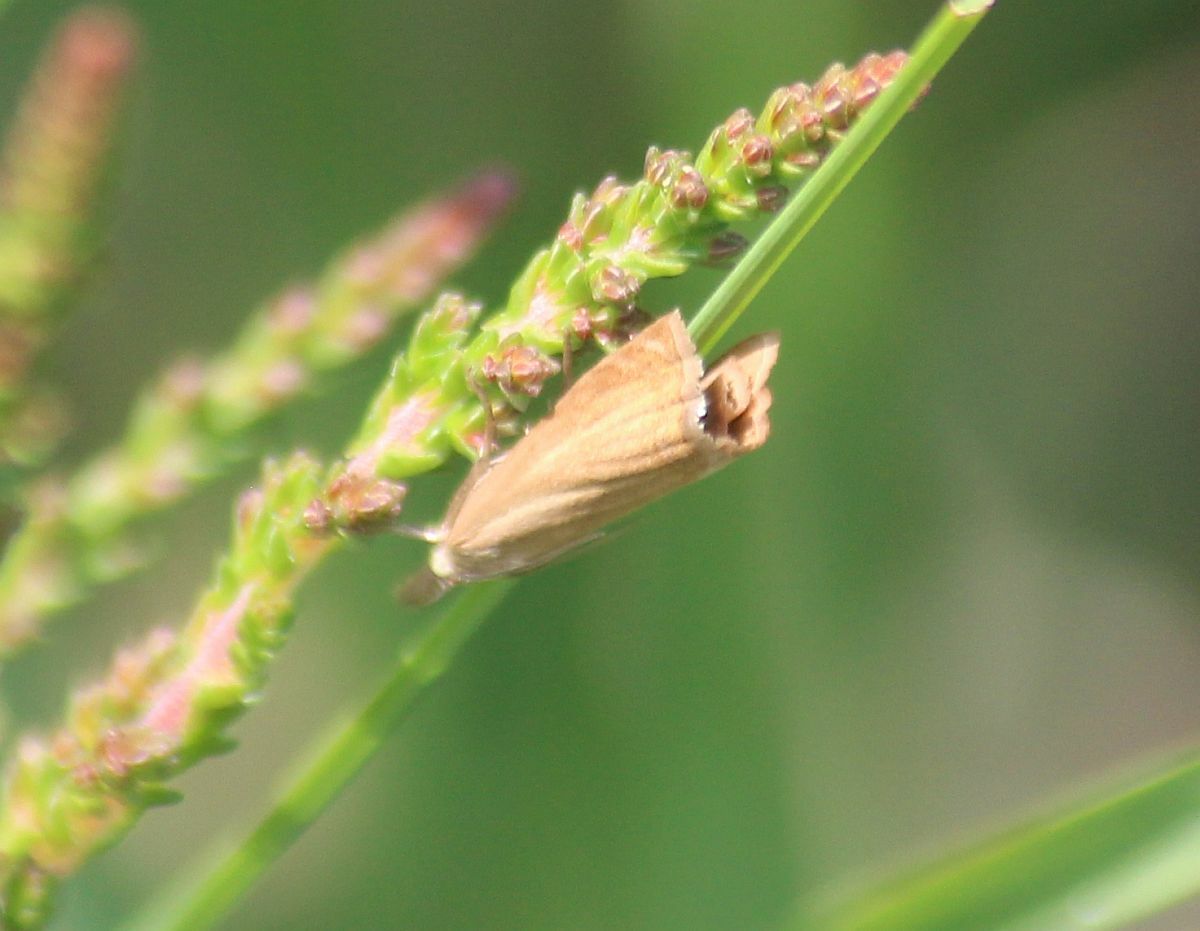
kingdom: Animalia
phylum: Arthropoda
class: Insecta
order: Lepidoptera
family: Crambidae
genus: Chrysoteuchia
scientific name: Chrysoteuchia culmella
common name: Garden grass-veneer
